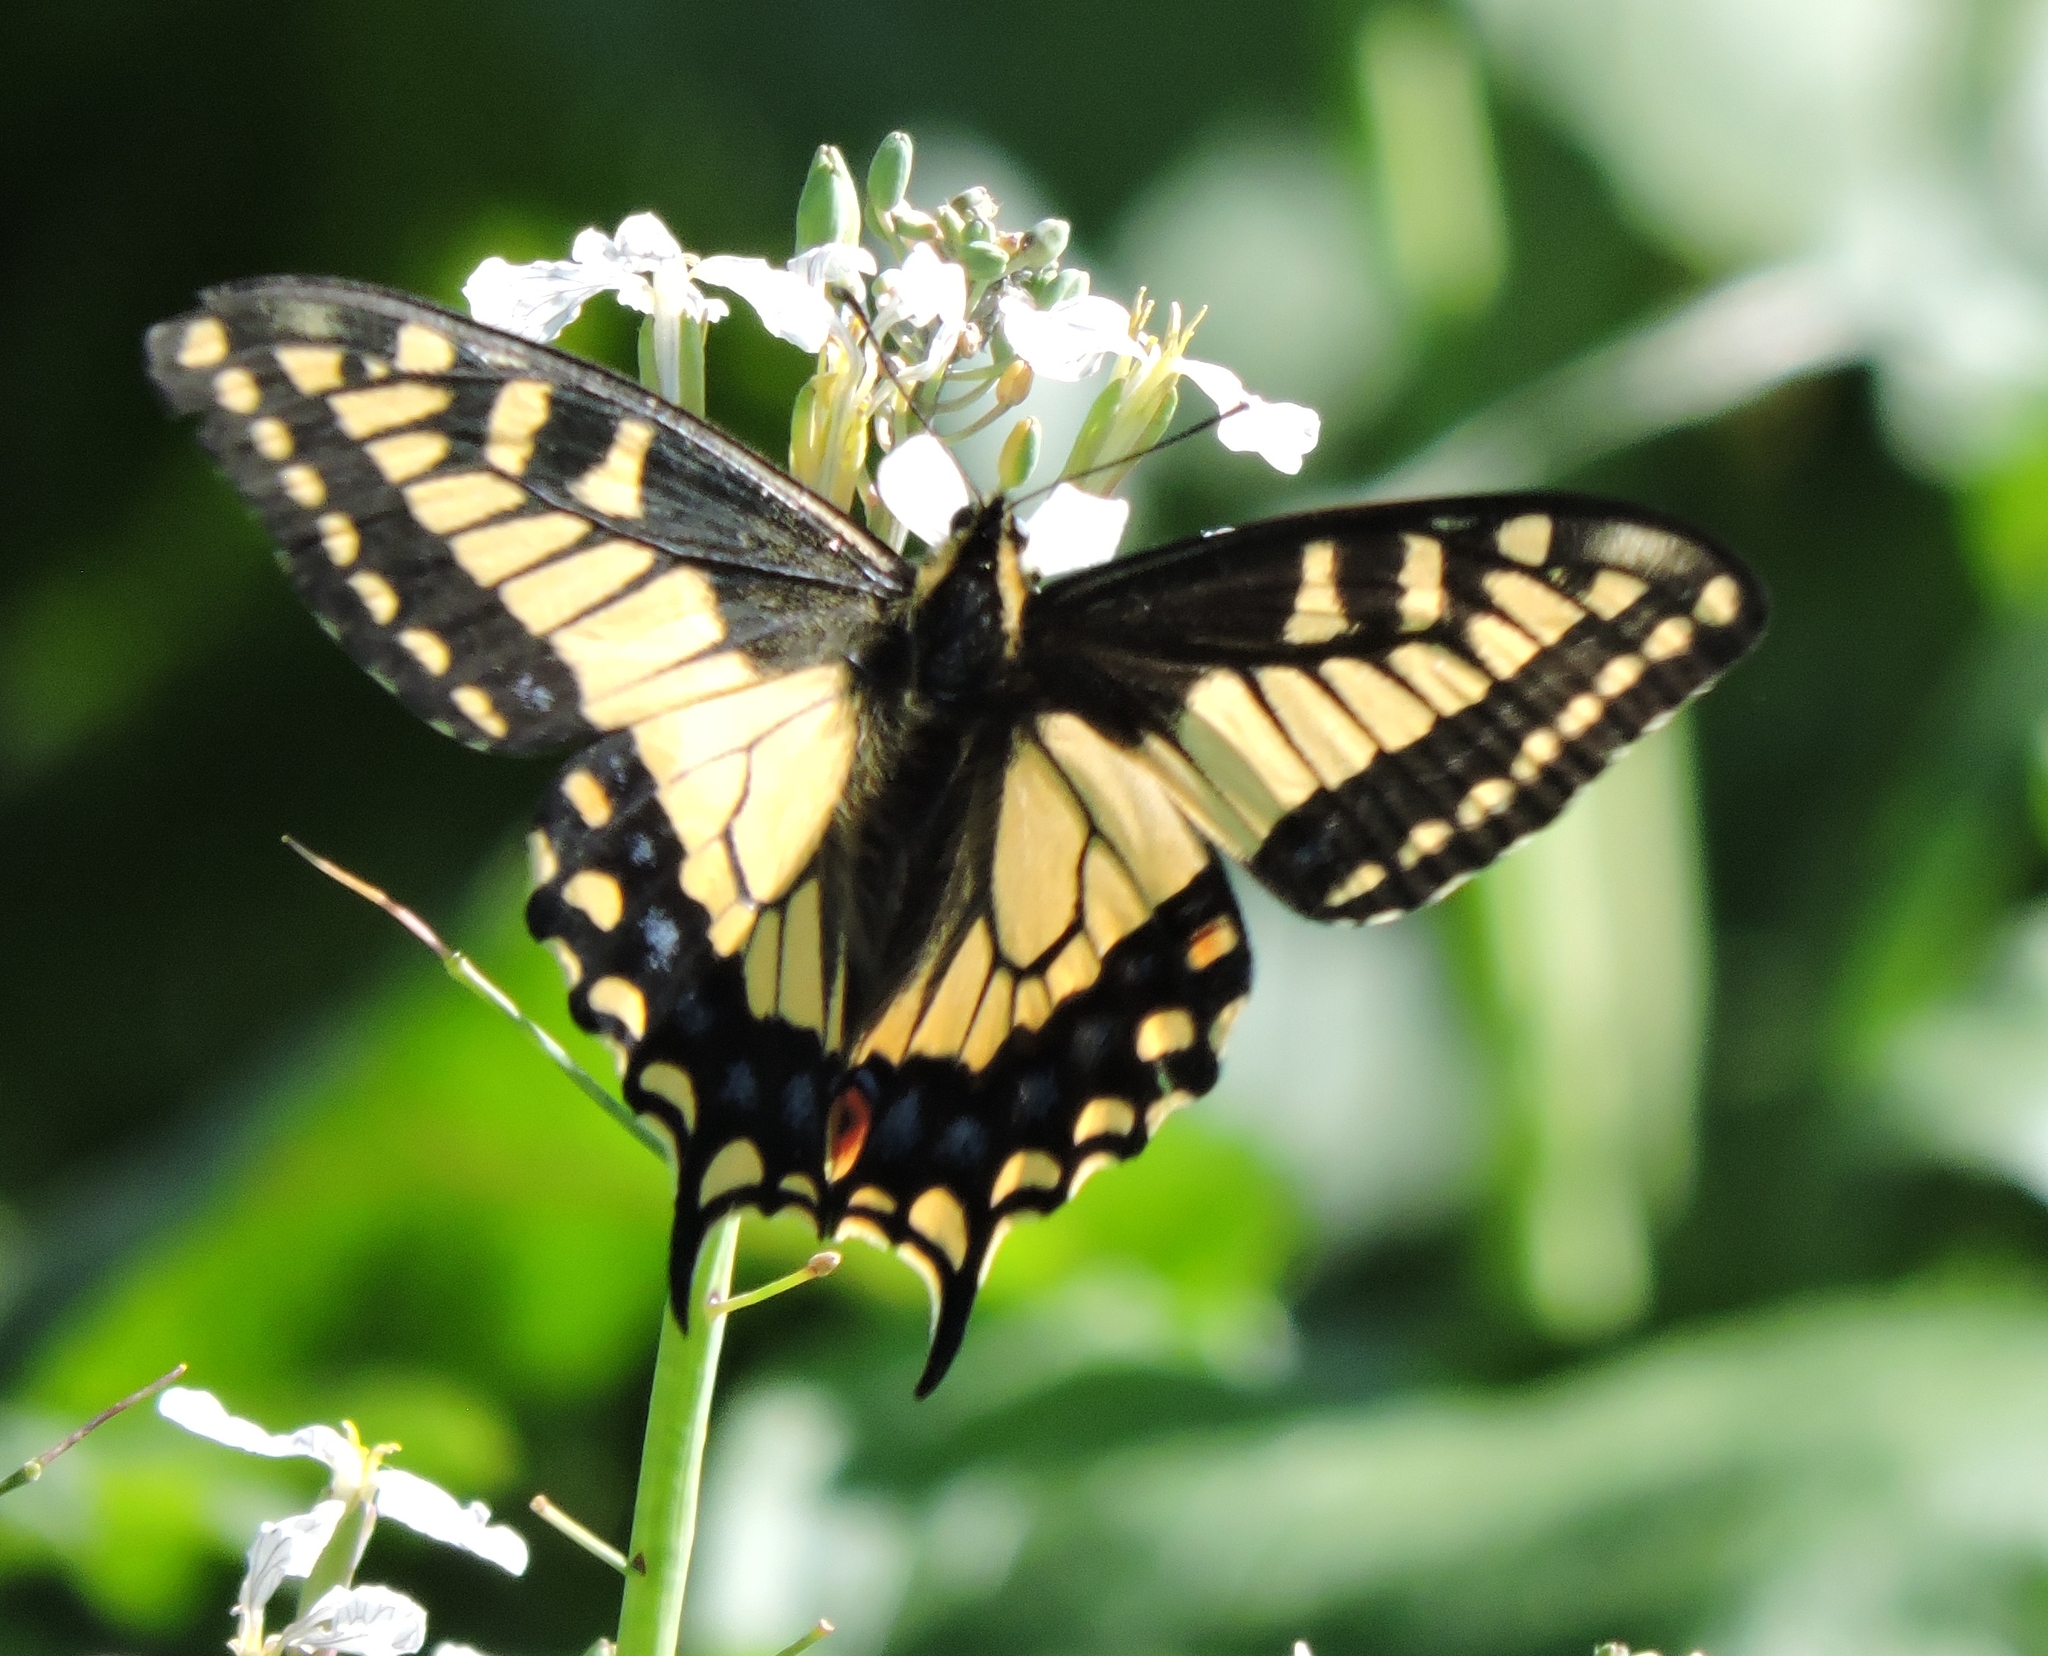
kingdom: Animalia
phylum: Arthropoda
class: Insecta
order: Lepidoptera
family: Papilionidae
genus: Papilio
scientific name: Papilio zelicaon
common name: Anise swallowtail
